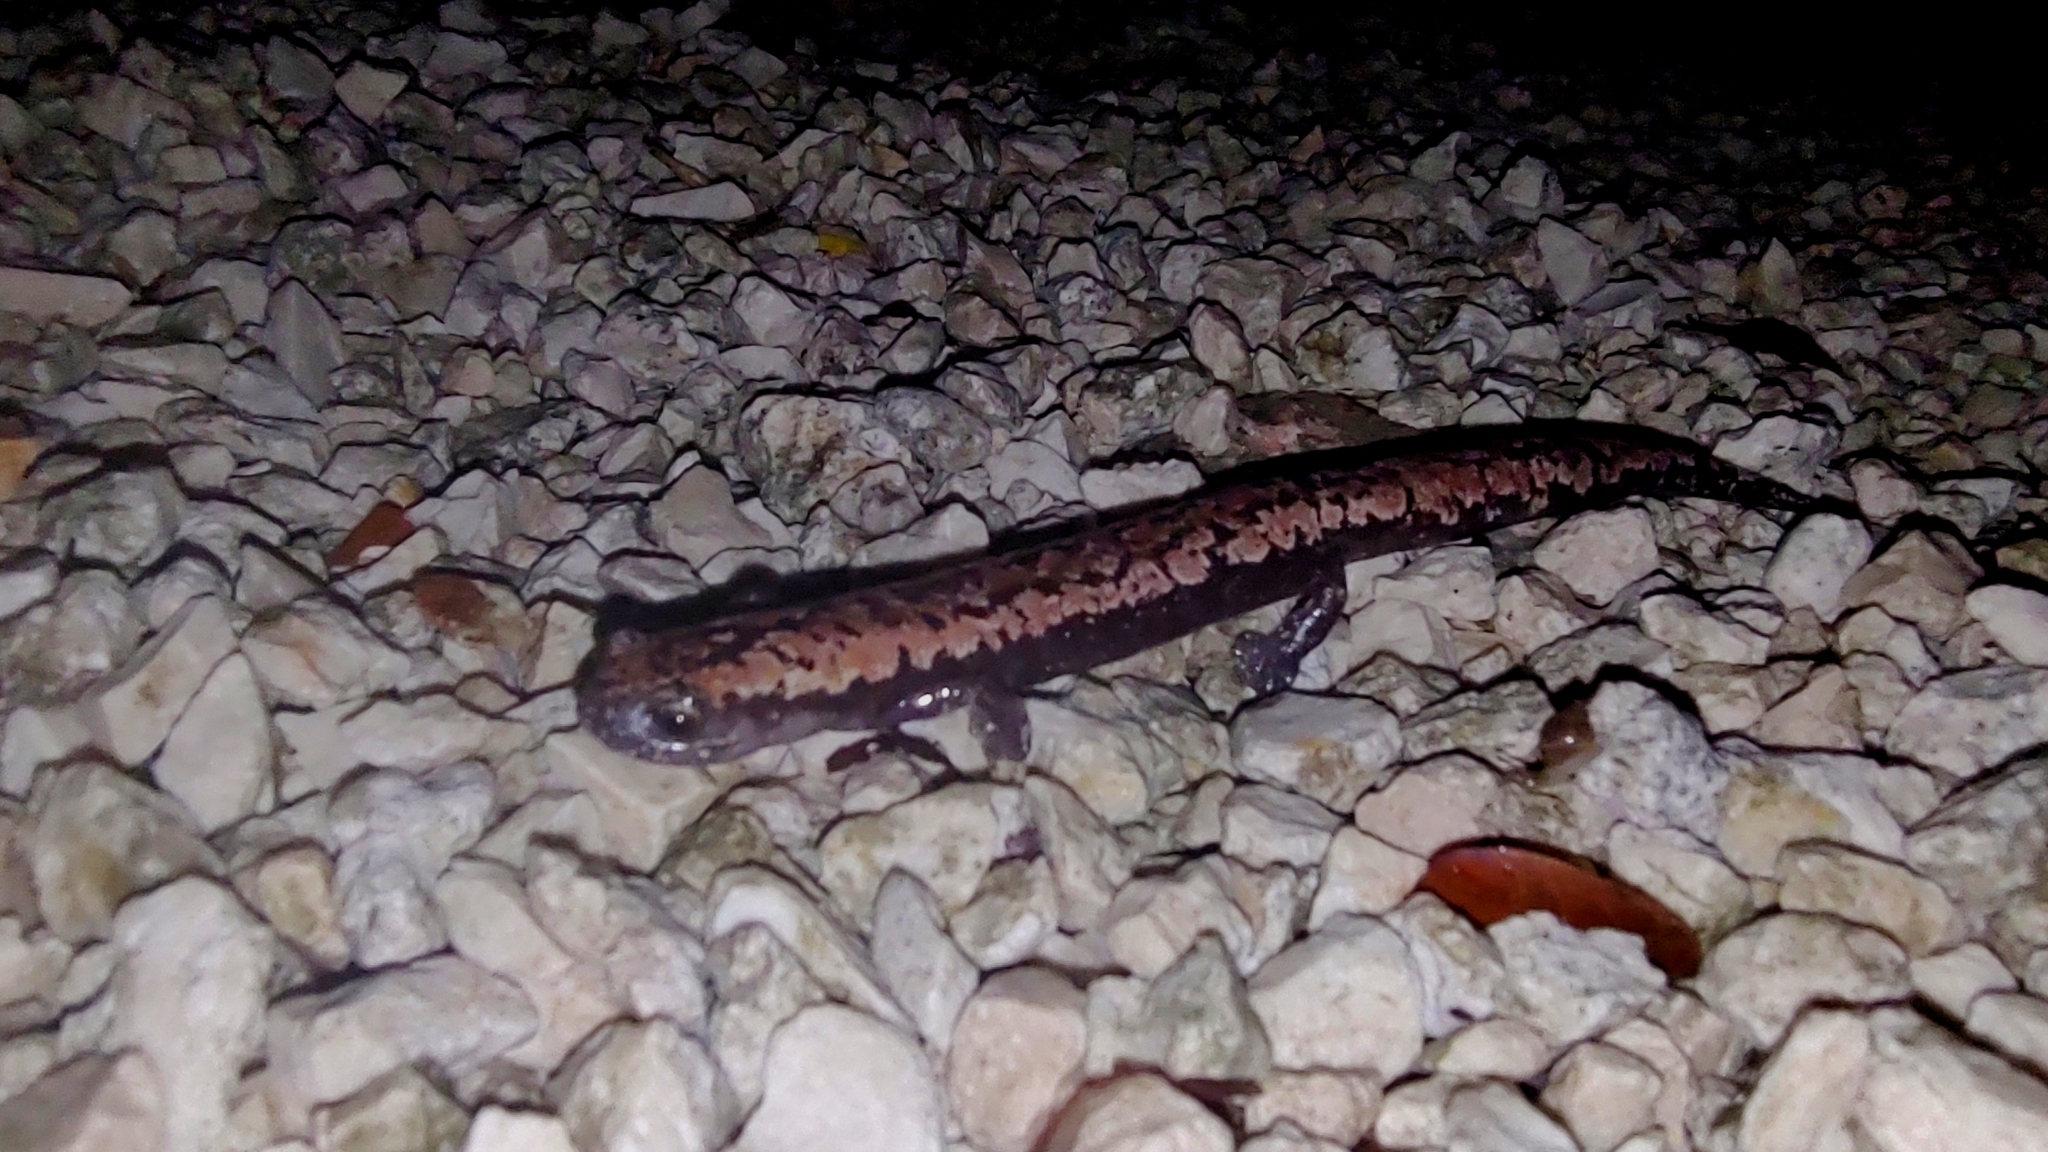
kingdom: Animalia
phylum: Chordata
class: Amphibia
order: Caudata
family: Plethodontidae
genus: Bolitoglossa
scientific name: Bolitoglossa yucatana
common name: Yucatan mushroomtongue salamander
